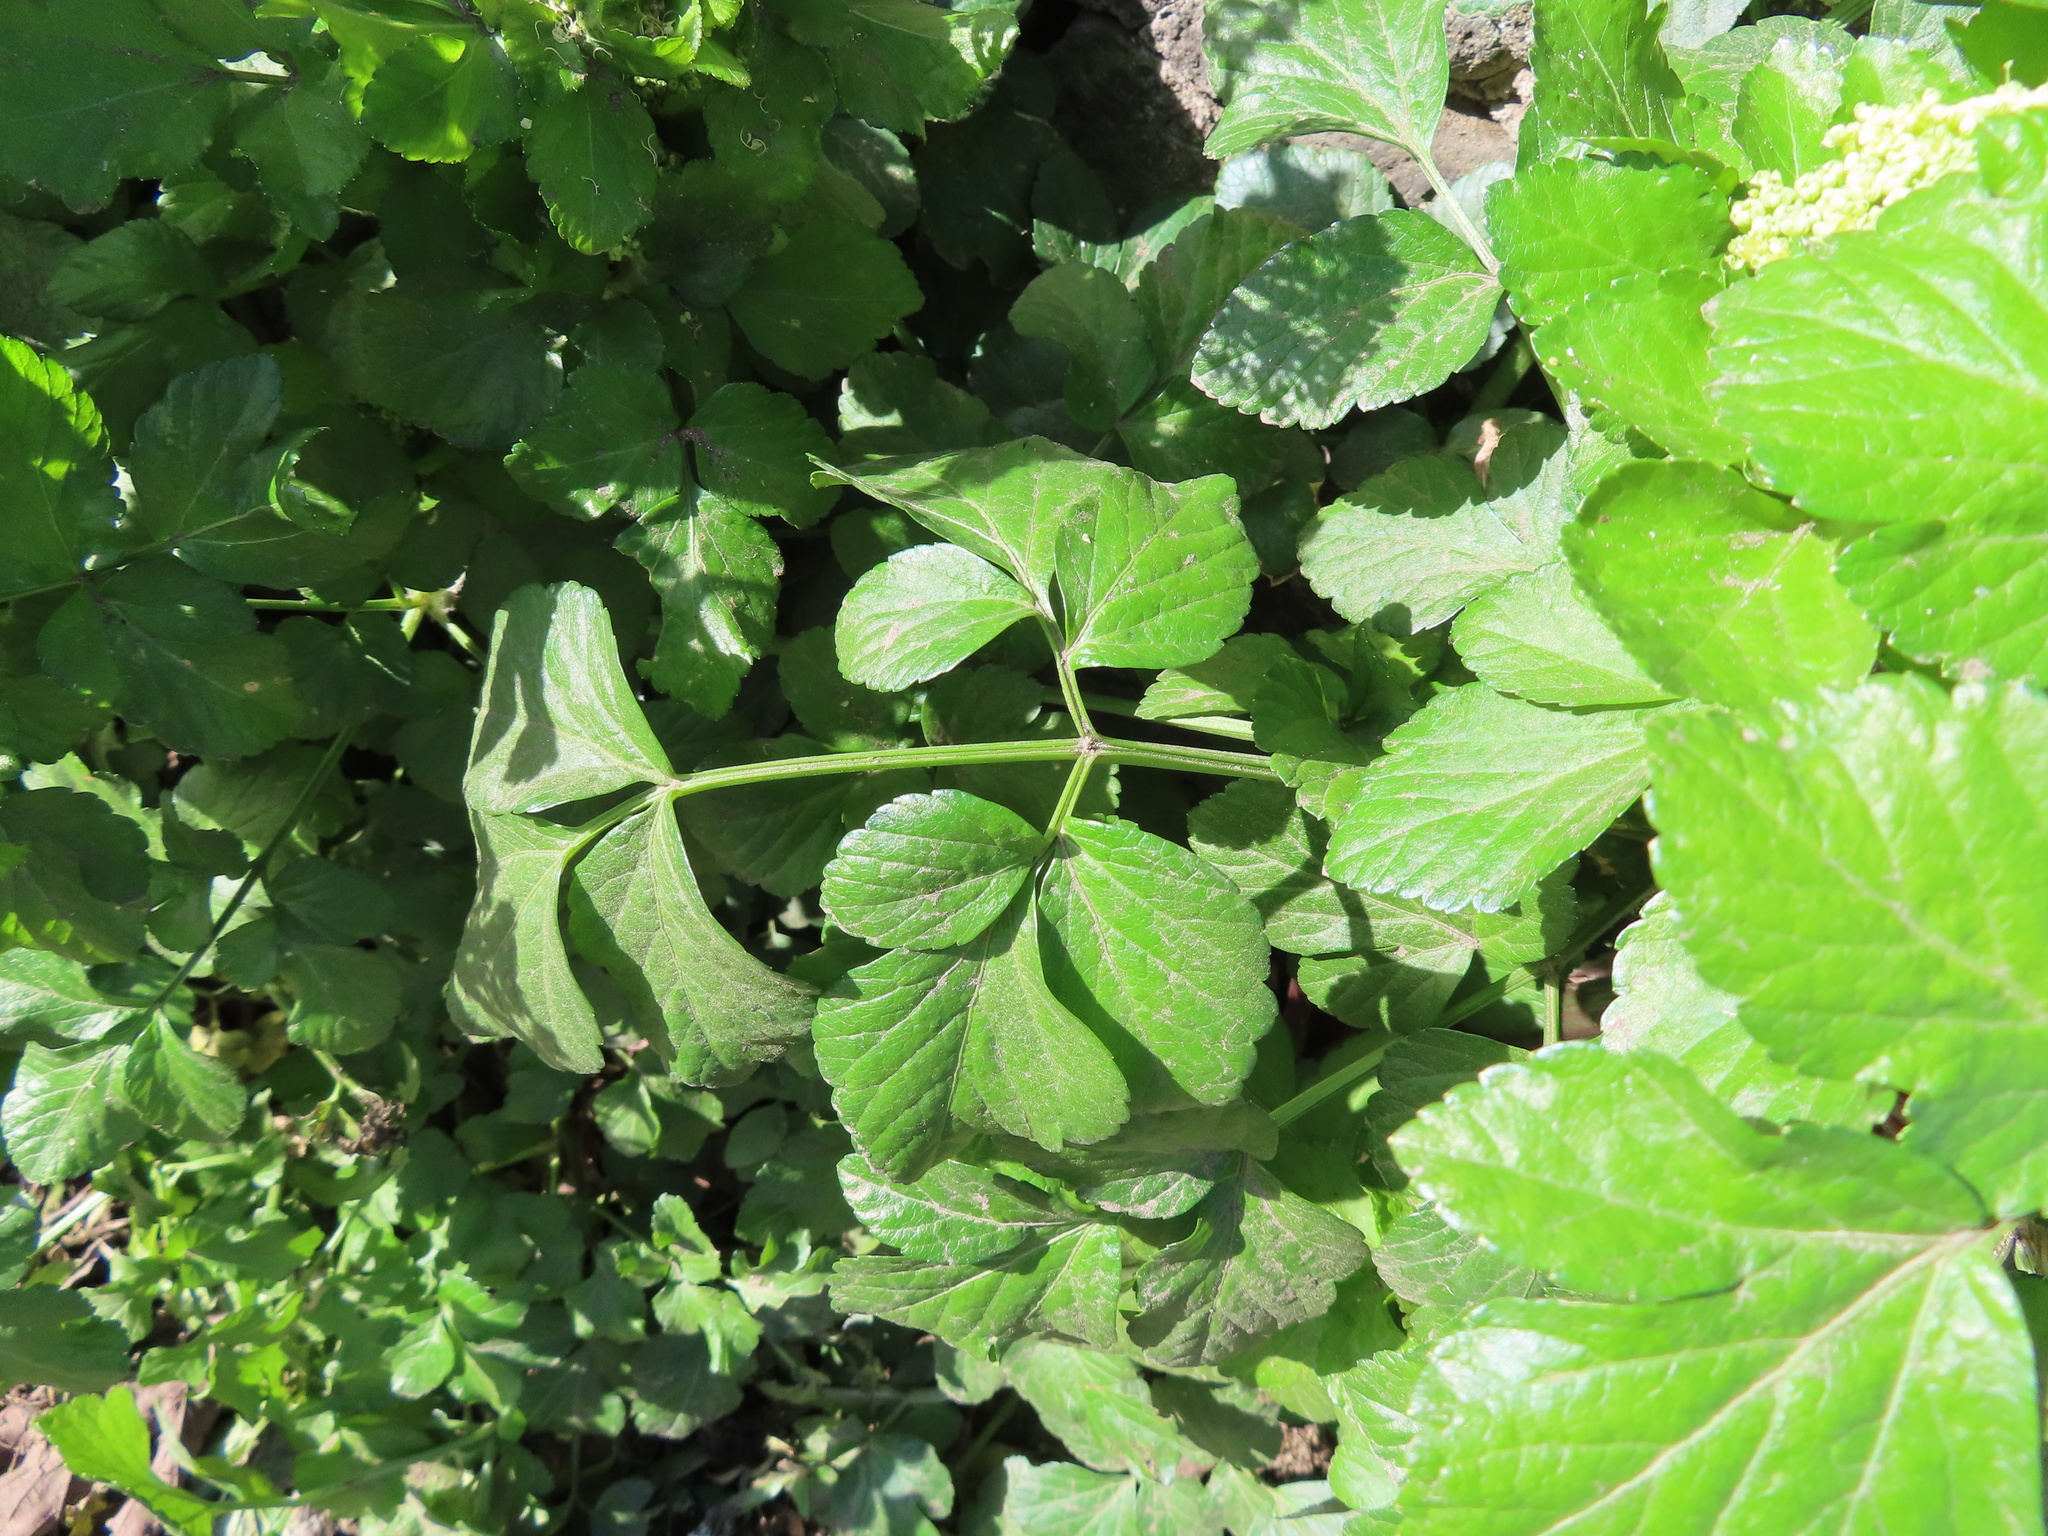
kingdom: Plantae
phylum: Tracheophyta
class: Magnoliopsida
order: Apiales
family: Apiaceae
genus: Smyrnium
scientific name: Smyrnium olusatrum
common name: Alexanders
